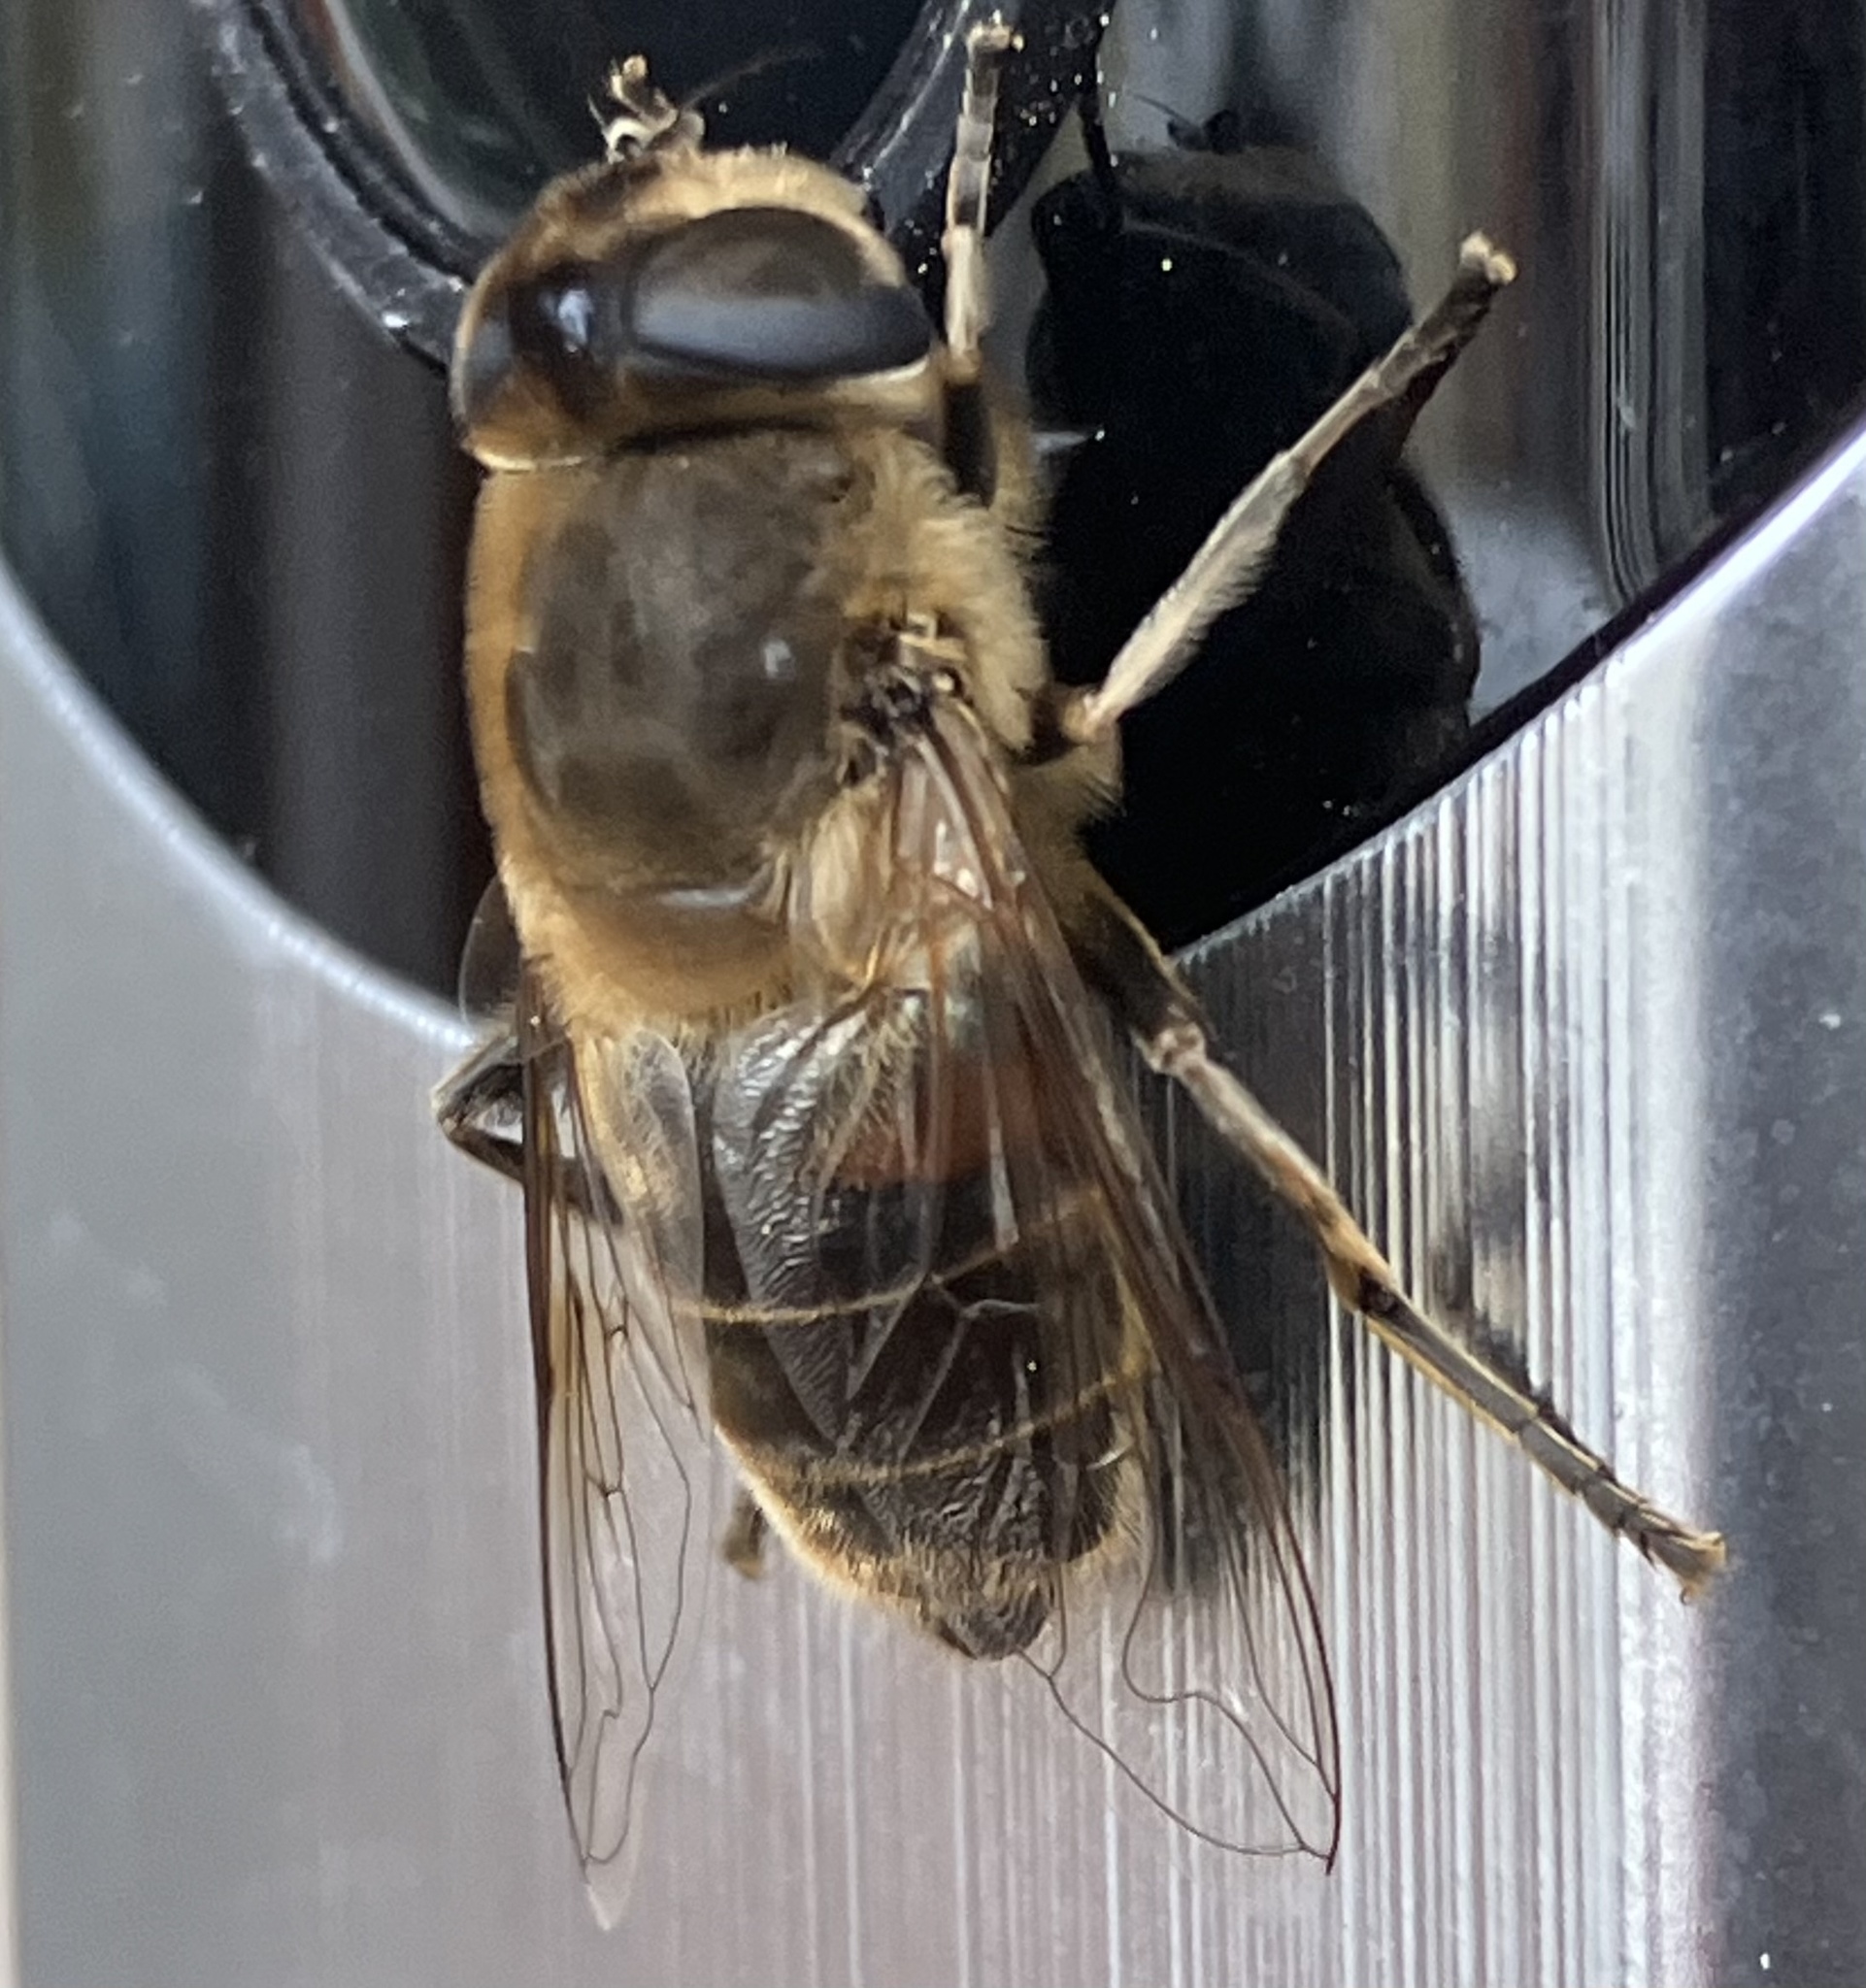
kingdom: Animalia
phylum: Arthropoda
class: Insecta
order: Diptera
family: Syrphidae
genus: Eristalis
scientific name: Eristalis tenax
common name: Drone fly
